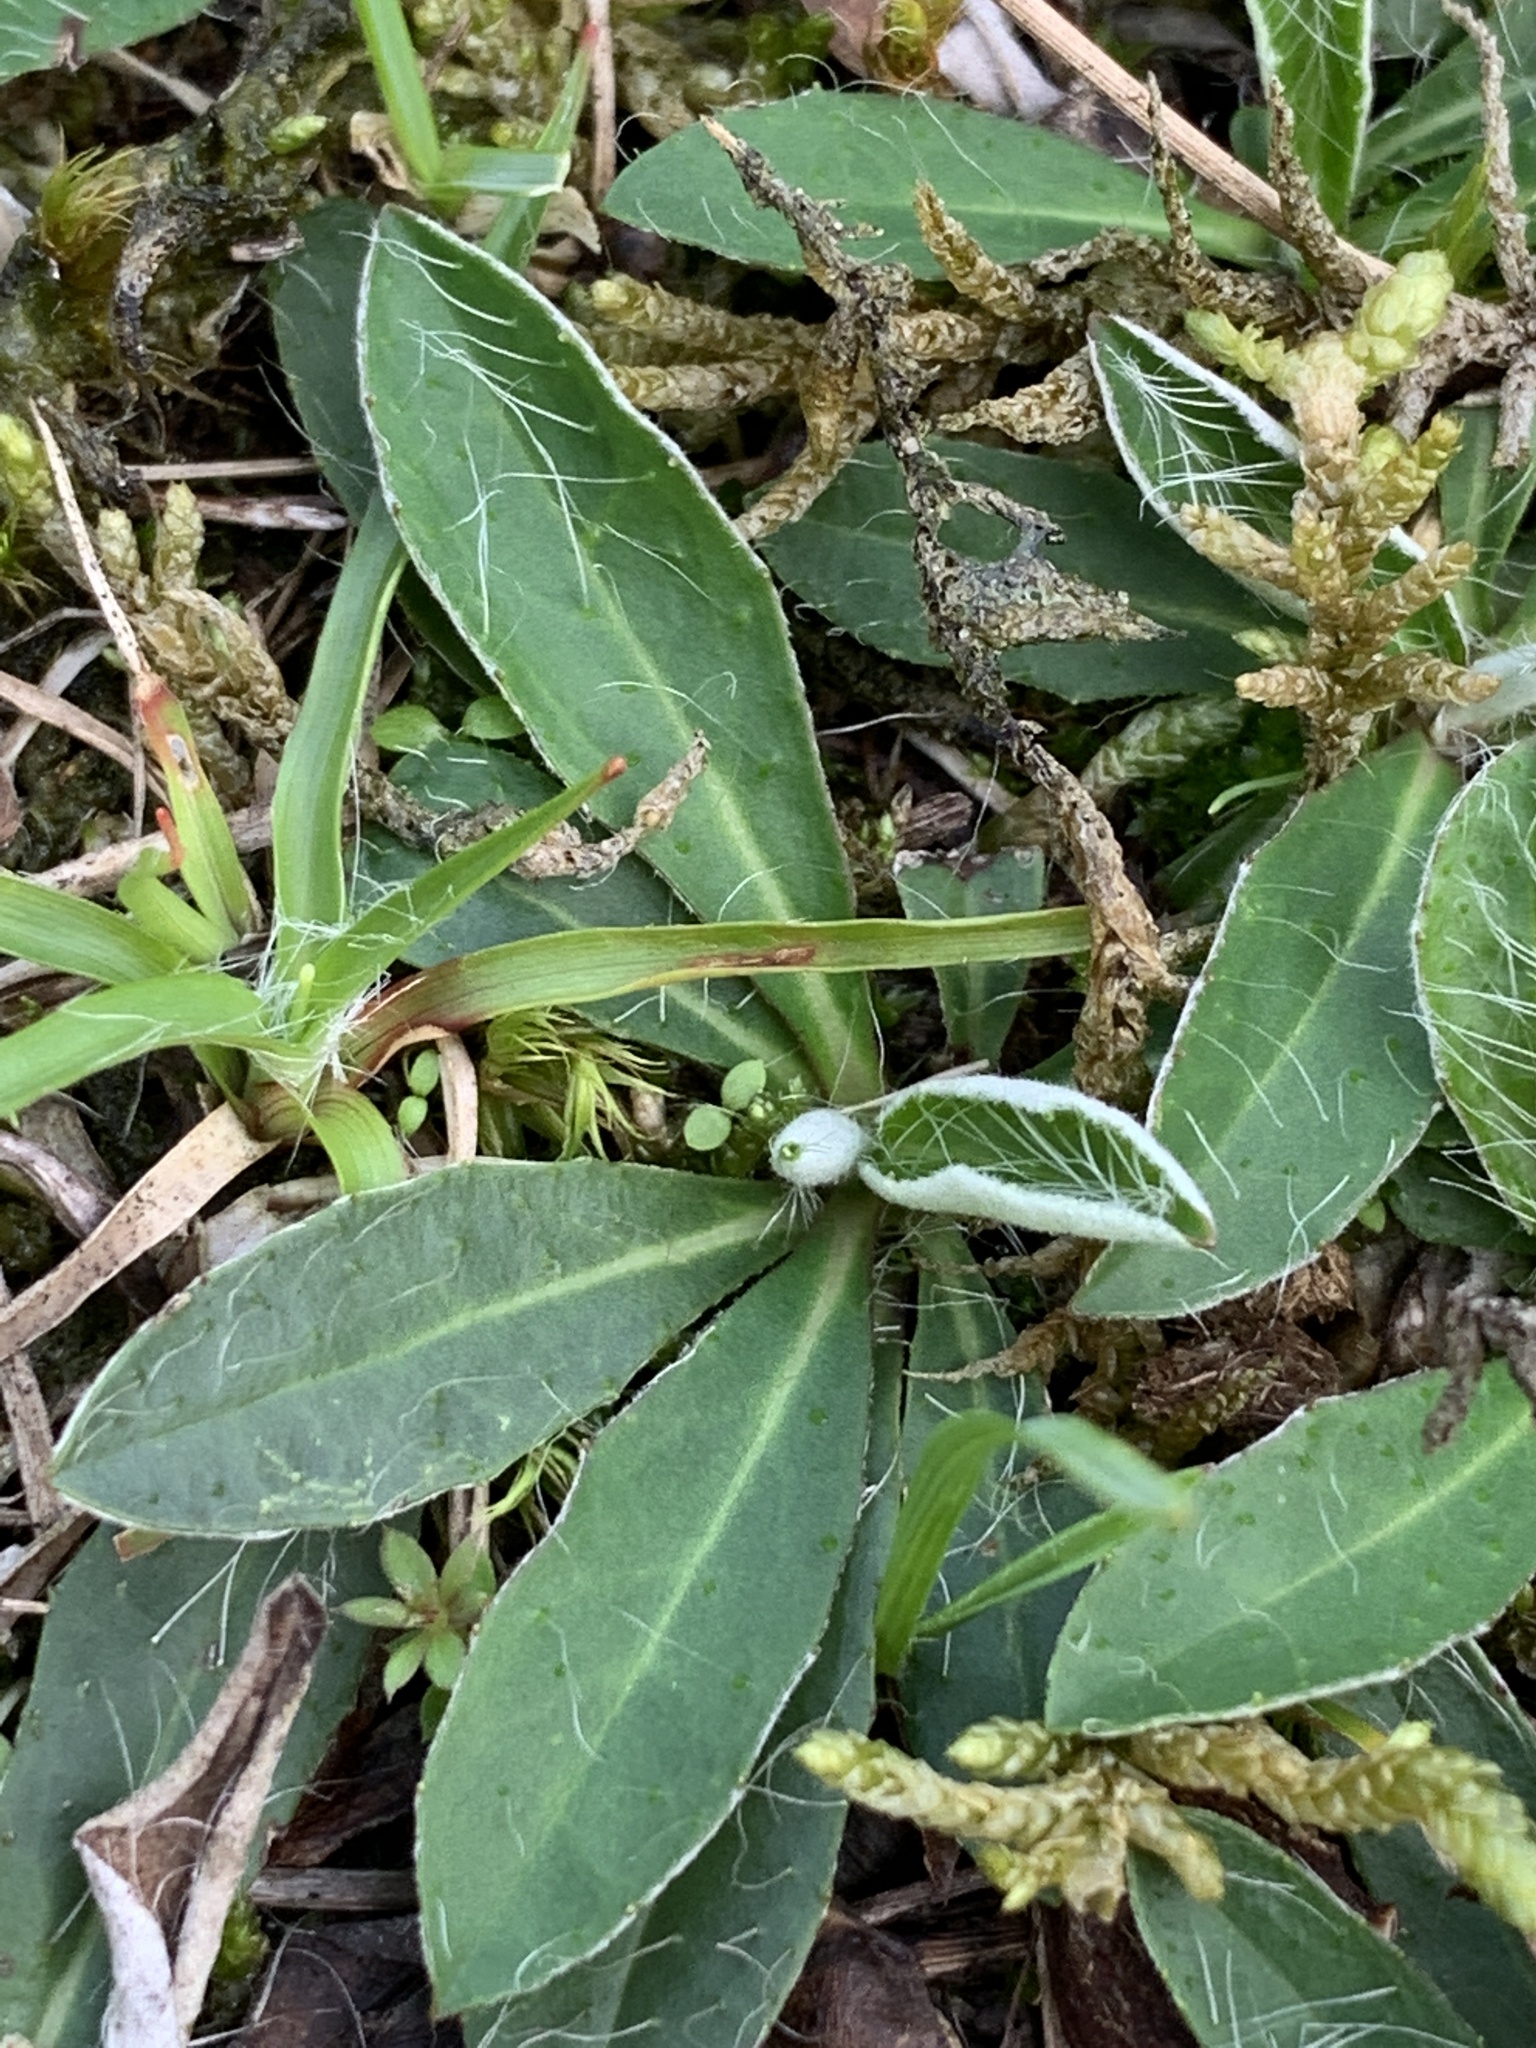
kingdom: Plantae
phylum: Tracheophyta
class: Magnoliopsida
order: Asterales
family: Asteraceae
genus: Pilosella
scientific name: Pilosella officinarum
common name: Mouse-ear hawkweed
